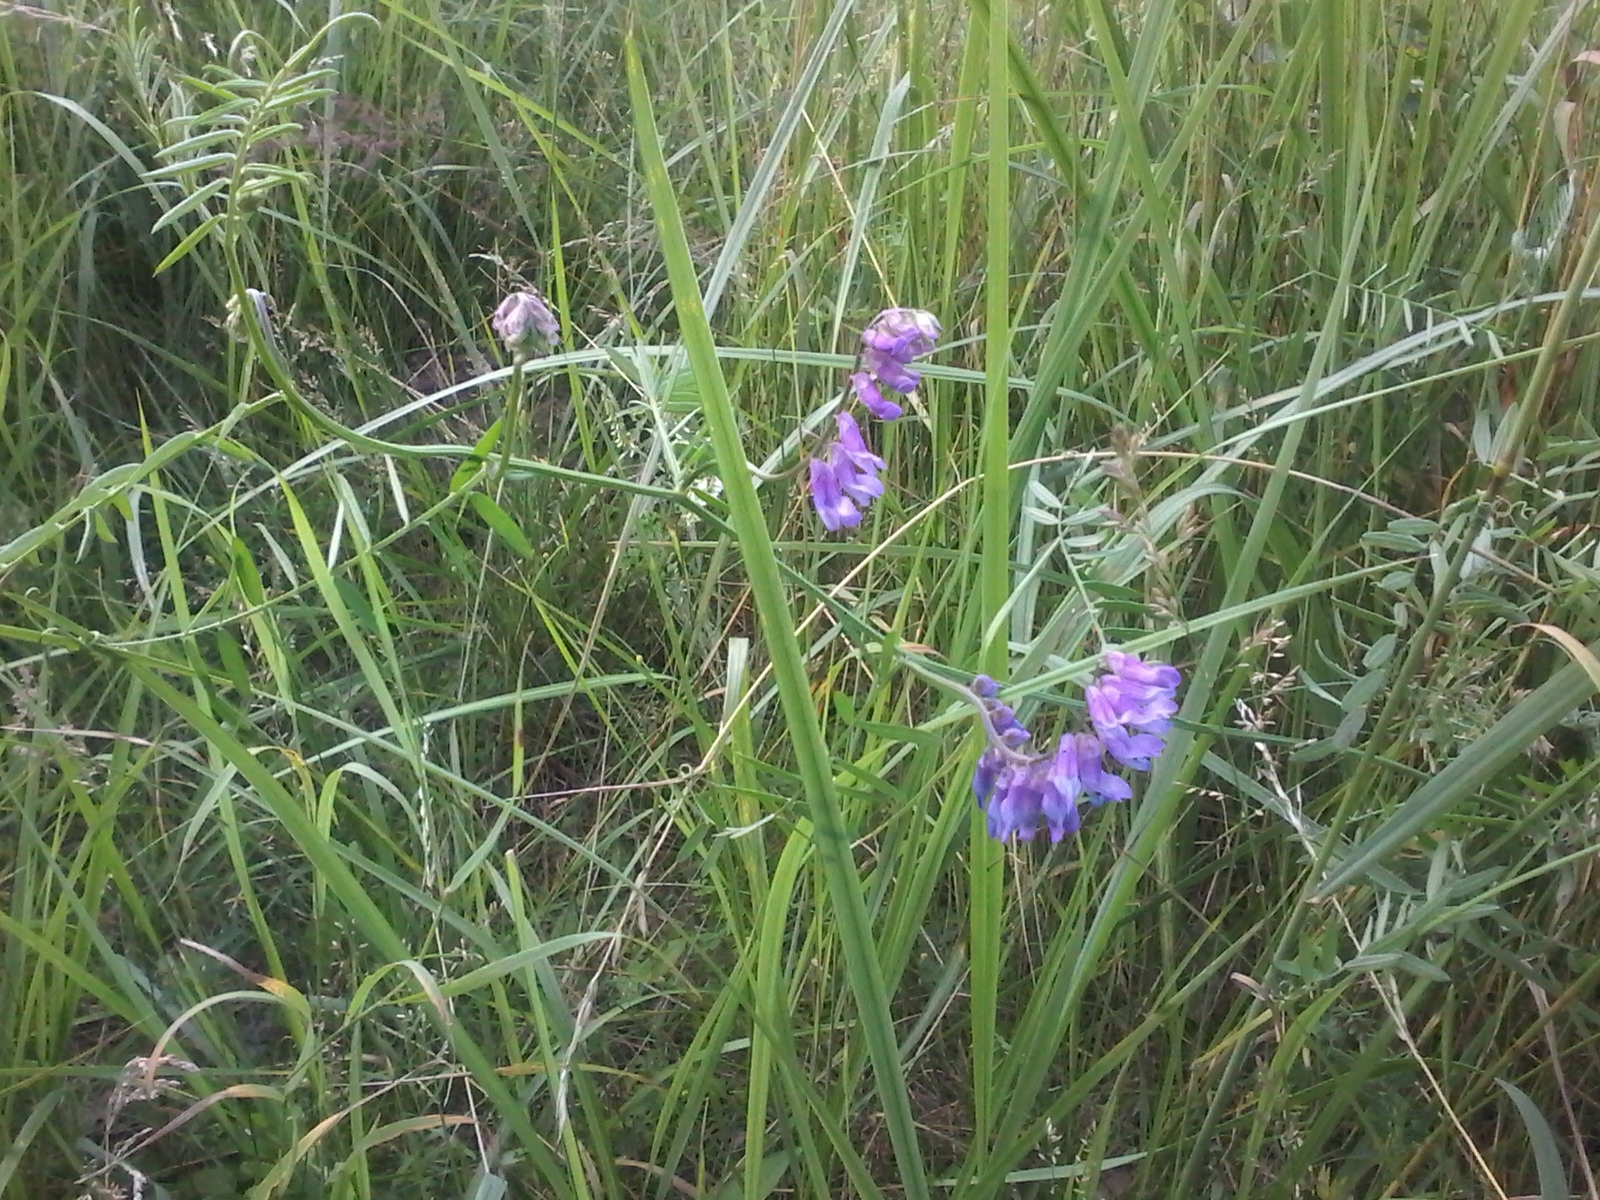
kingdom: Plantae
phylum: Tracheophyta
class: Magnoliopsida
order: Fabales
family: Fabaceae
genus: Vicia
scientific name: Vicia cracca
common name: Bird vetch
